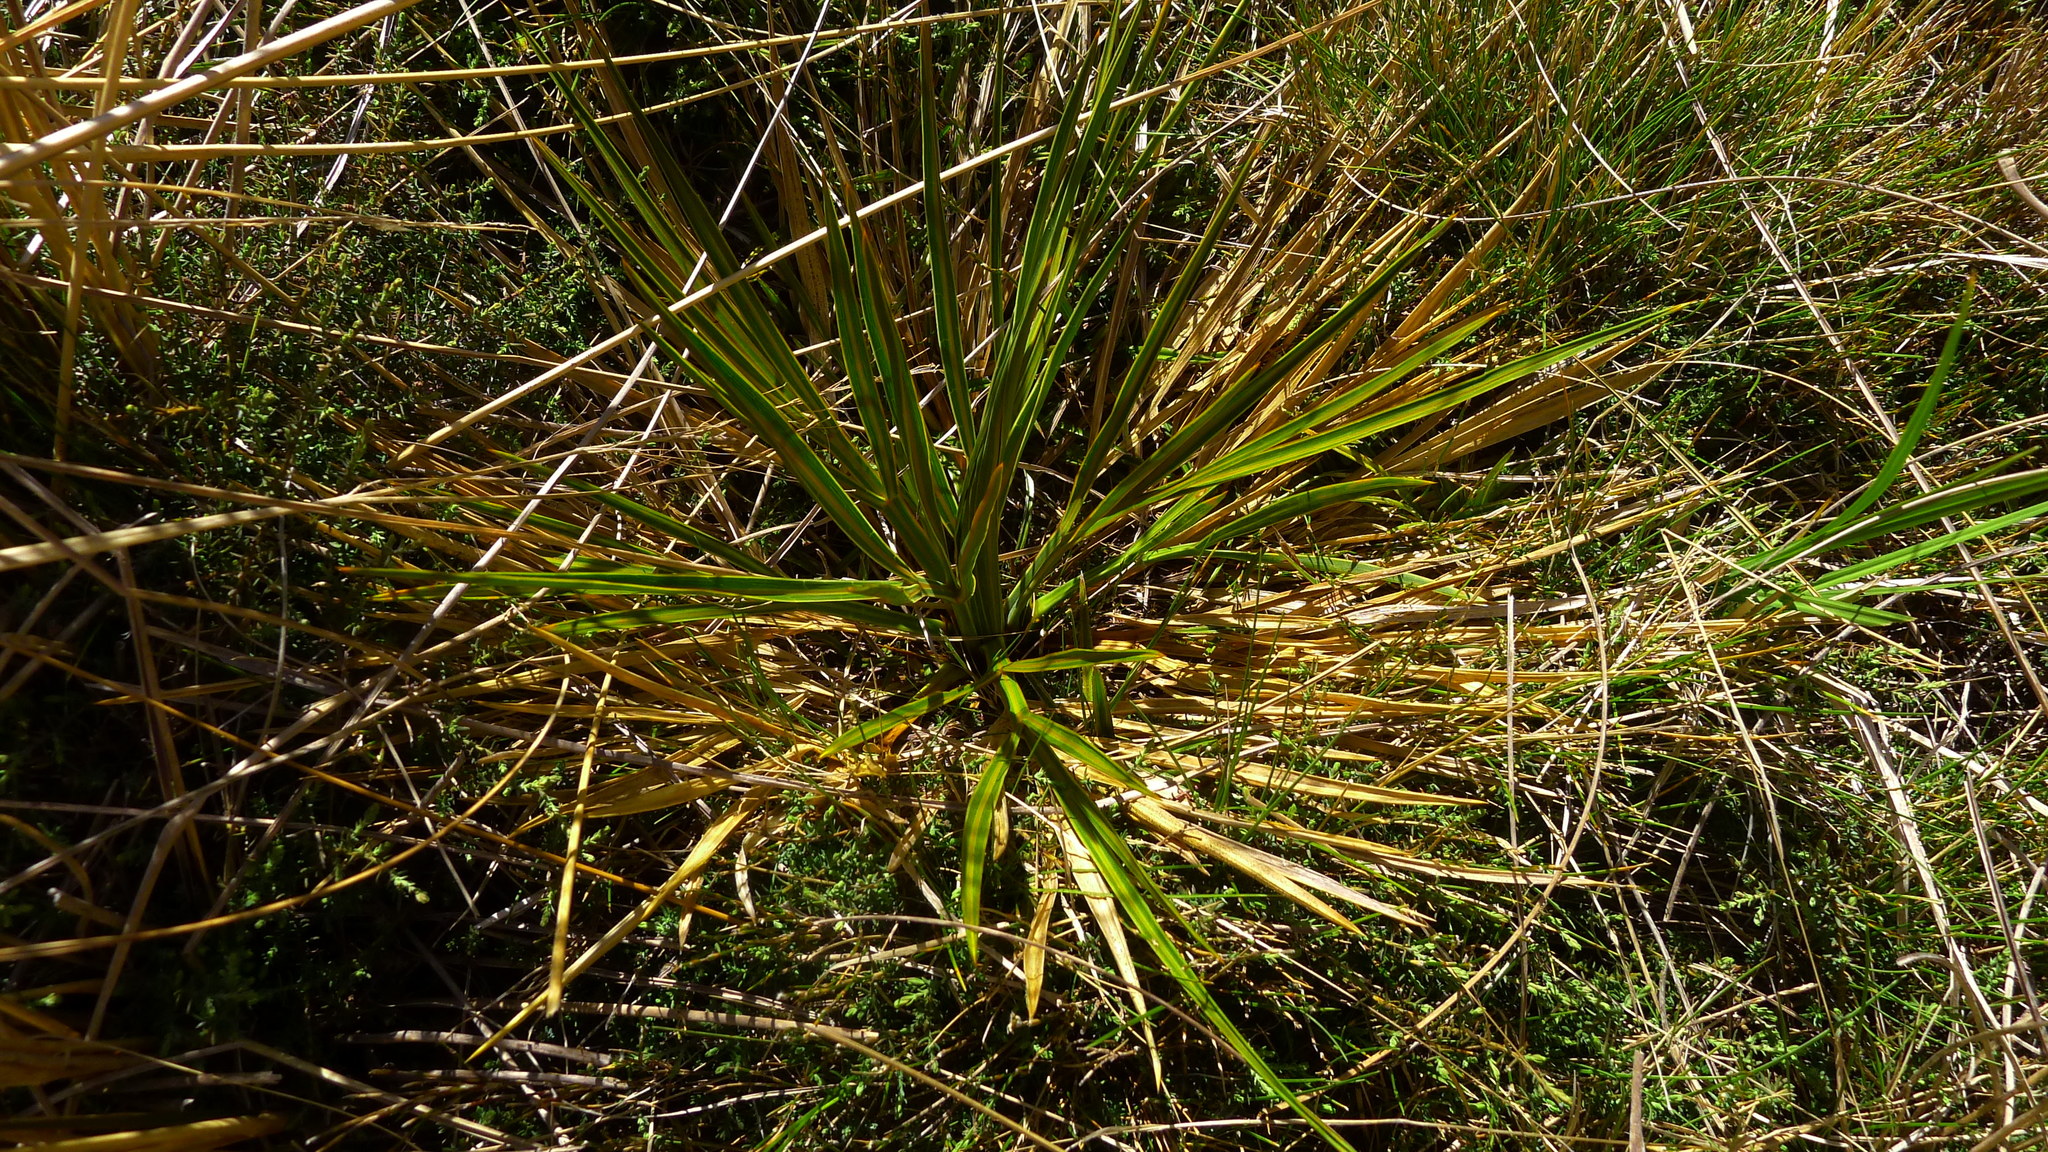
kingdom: Plantae
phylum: Tracheophyta
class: Magnoliopsida
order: Apiales
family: Apiaceae
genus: Aciphylla
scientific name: Aciphylla colensoi
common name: Colenso's spaniard
